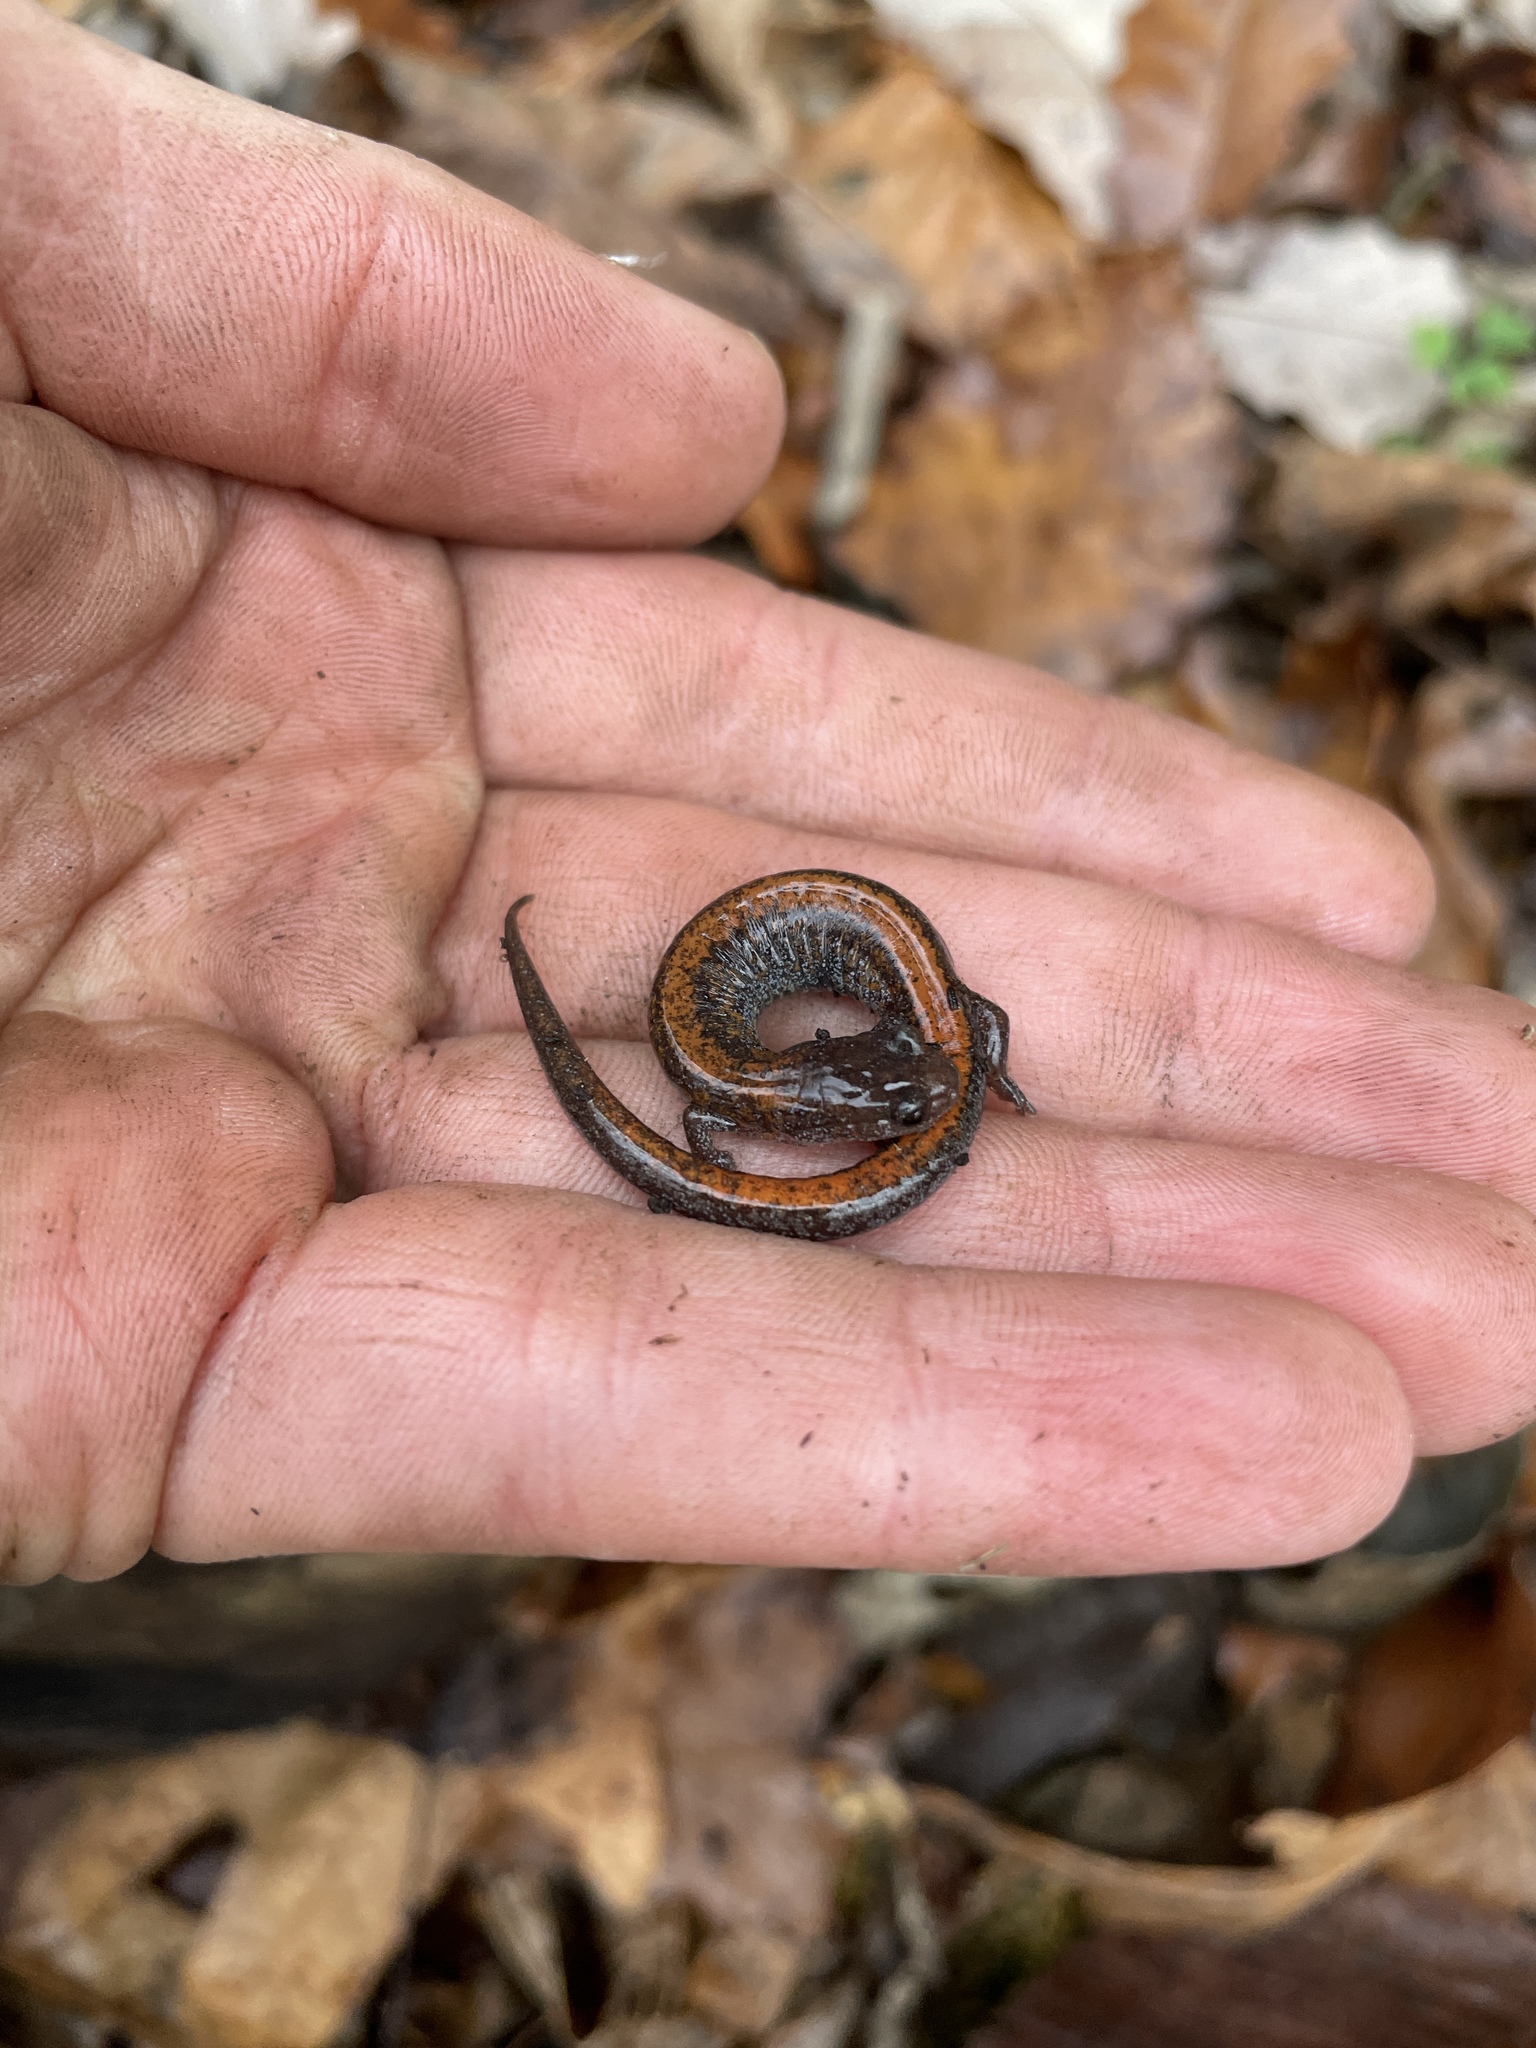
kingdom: Animalia
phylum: Chordata
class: Amphibia
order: Caudata
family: Plethodontidae
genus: Plethodon
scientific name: Plethodon dorsalis
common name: Northern zigzag salamander
